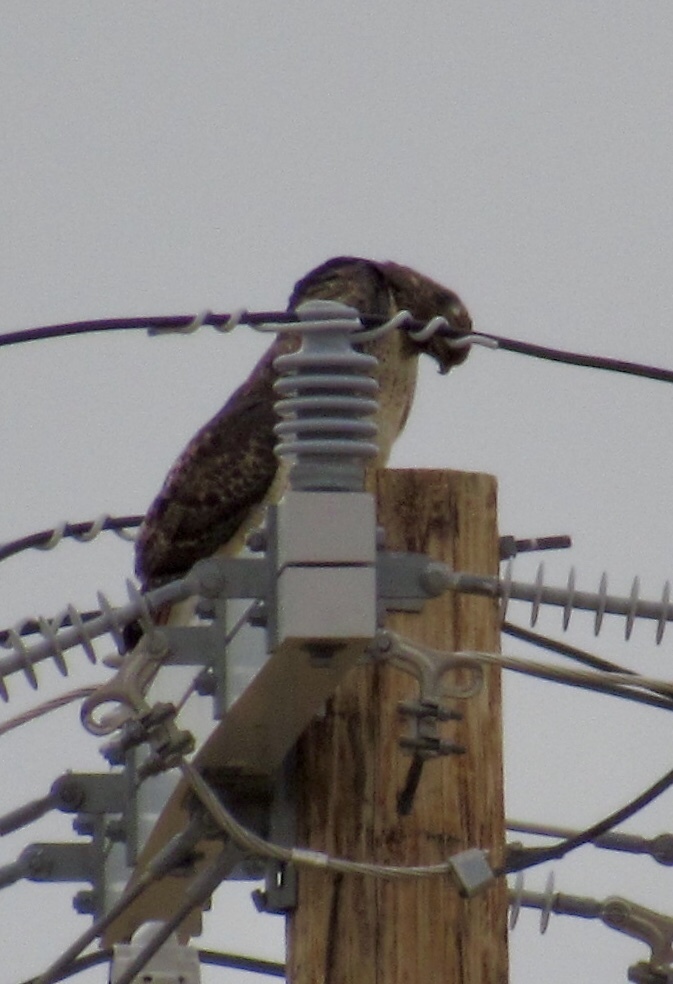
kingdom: Animalia
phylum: Chordata
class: Aves
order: Accipitriformes
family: Accipitridae
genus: Buteo
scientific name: Buteo jamaicensis
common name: Red-tailed hawk
